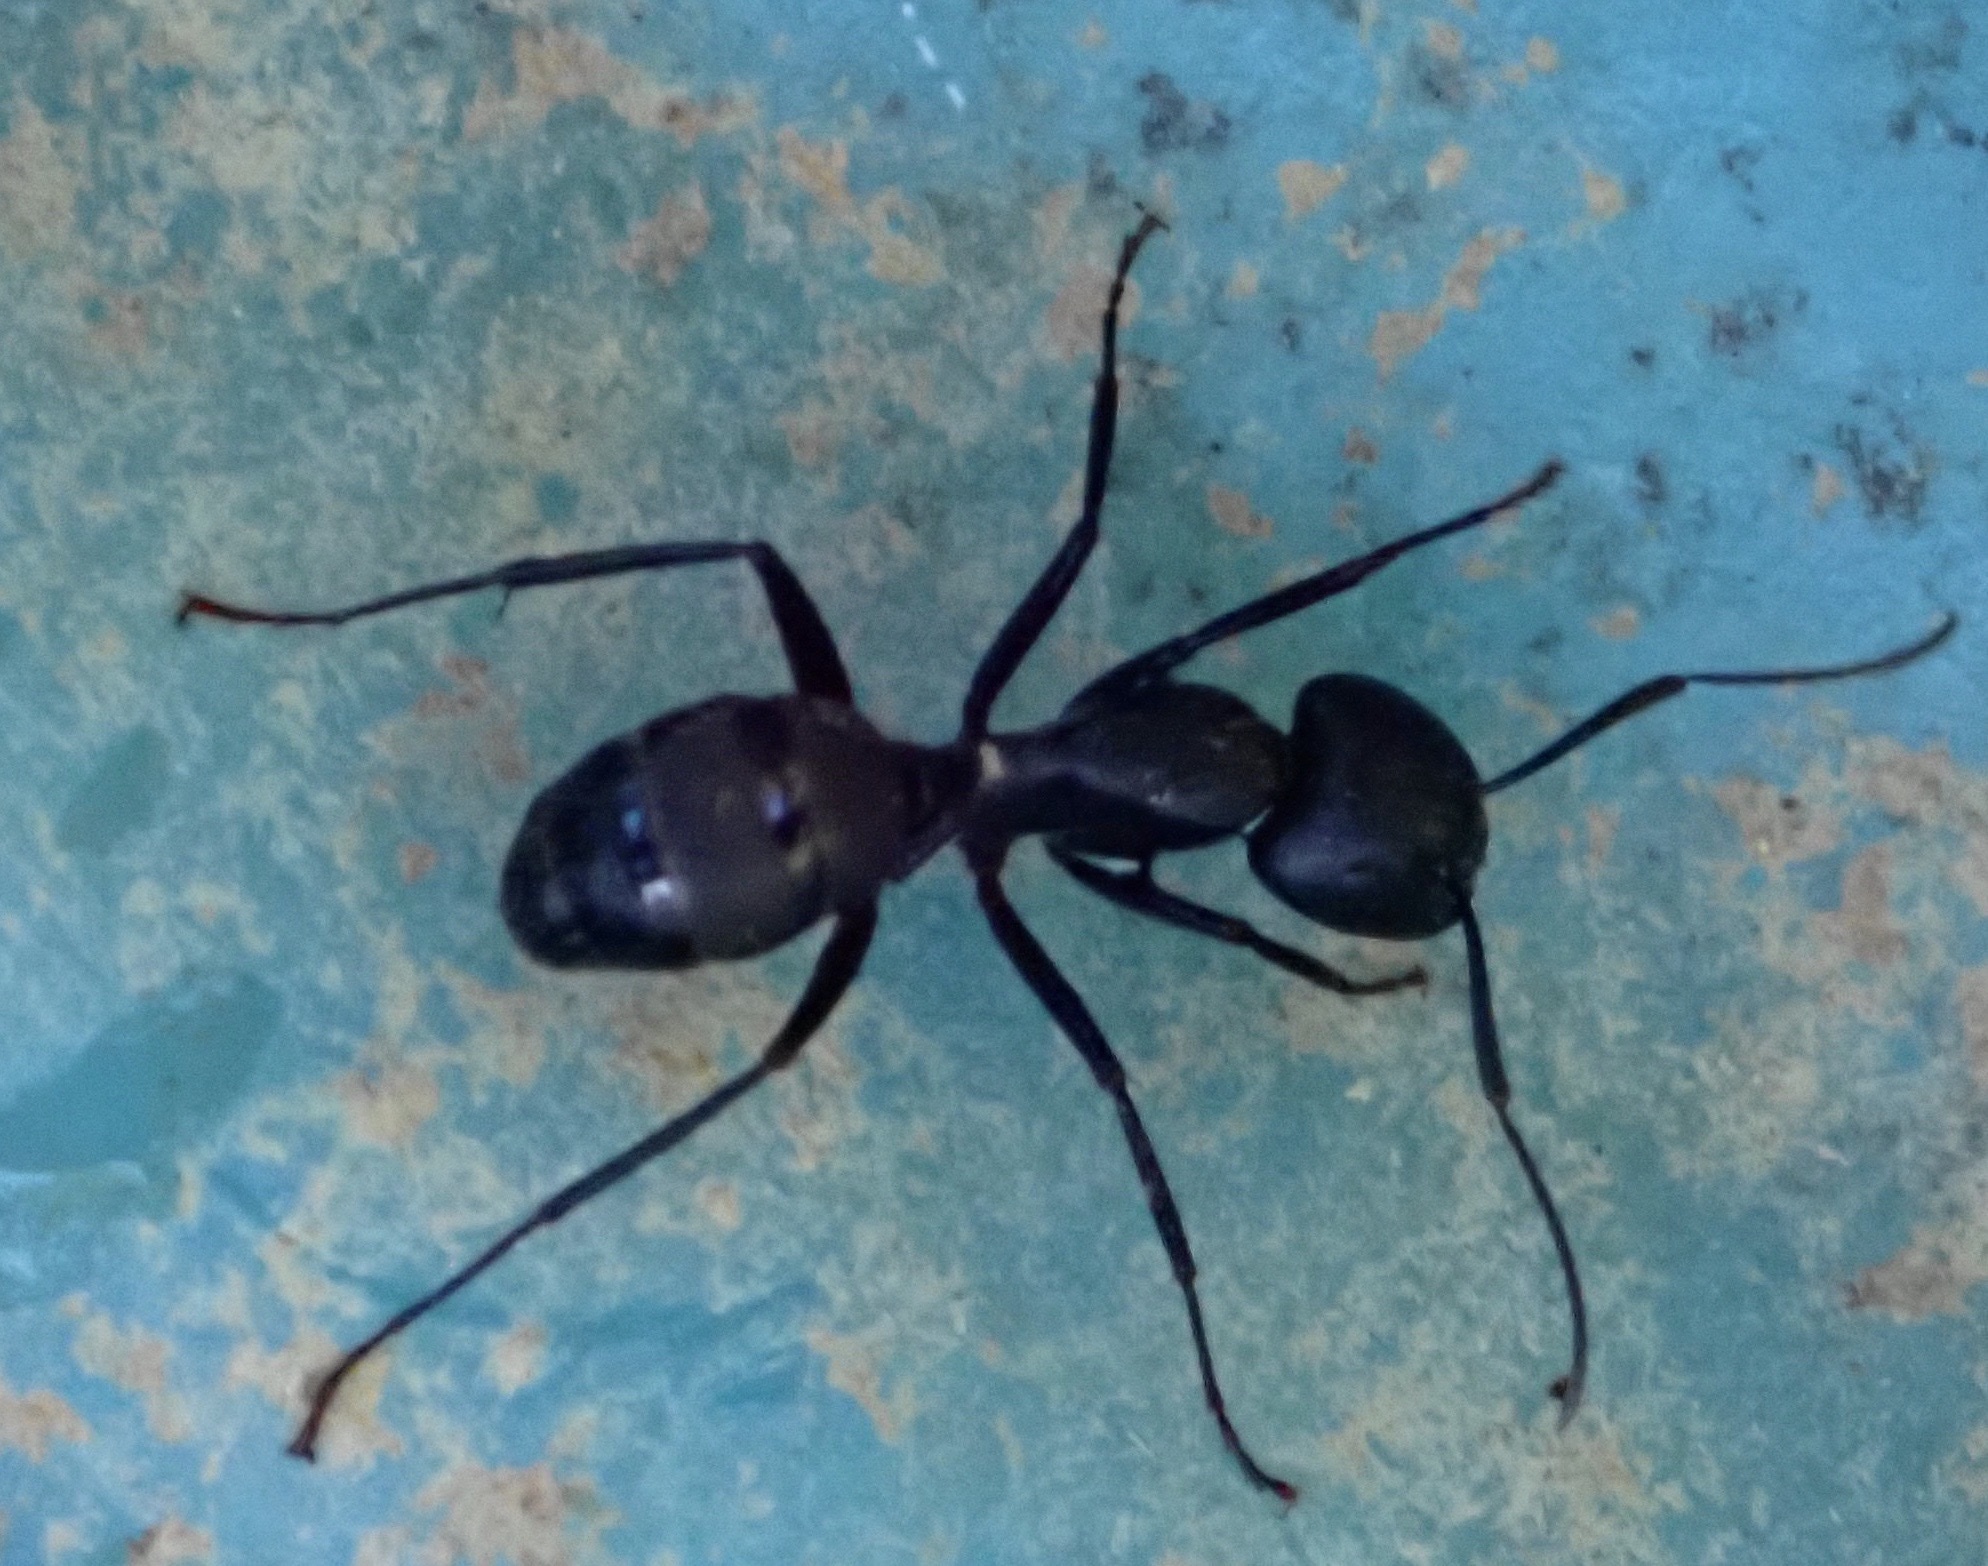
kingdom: Animalia
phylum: Arthropoda
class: Insecta
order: Hymenoptera
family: Formicidae
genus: Camponotus
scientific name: Camponotus pennsylvanicus
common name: Black carpenter ant
